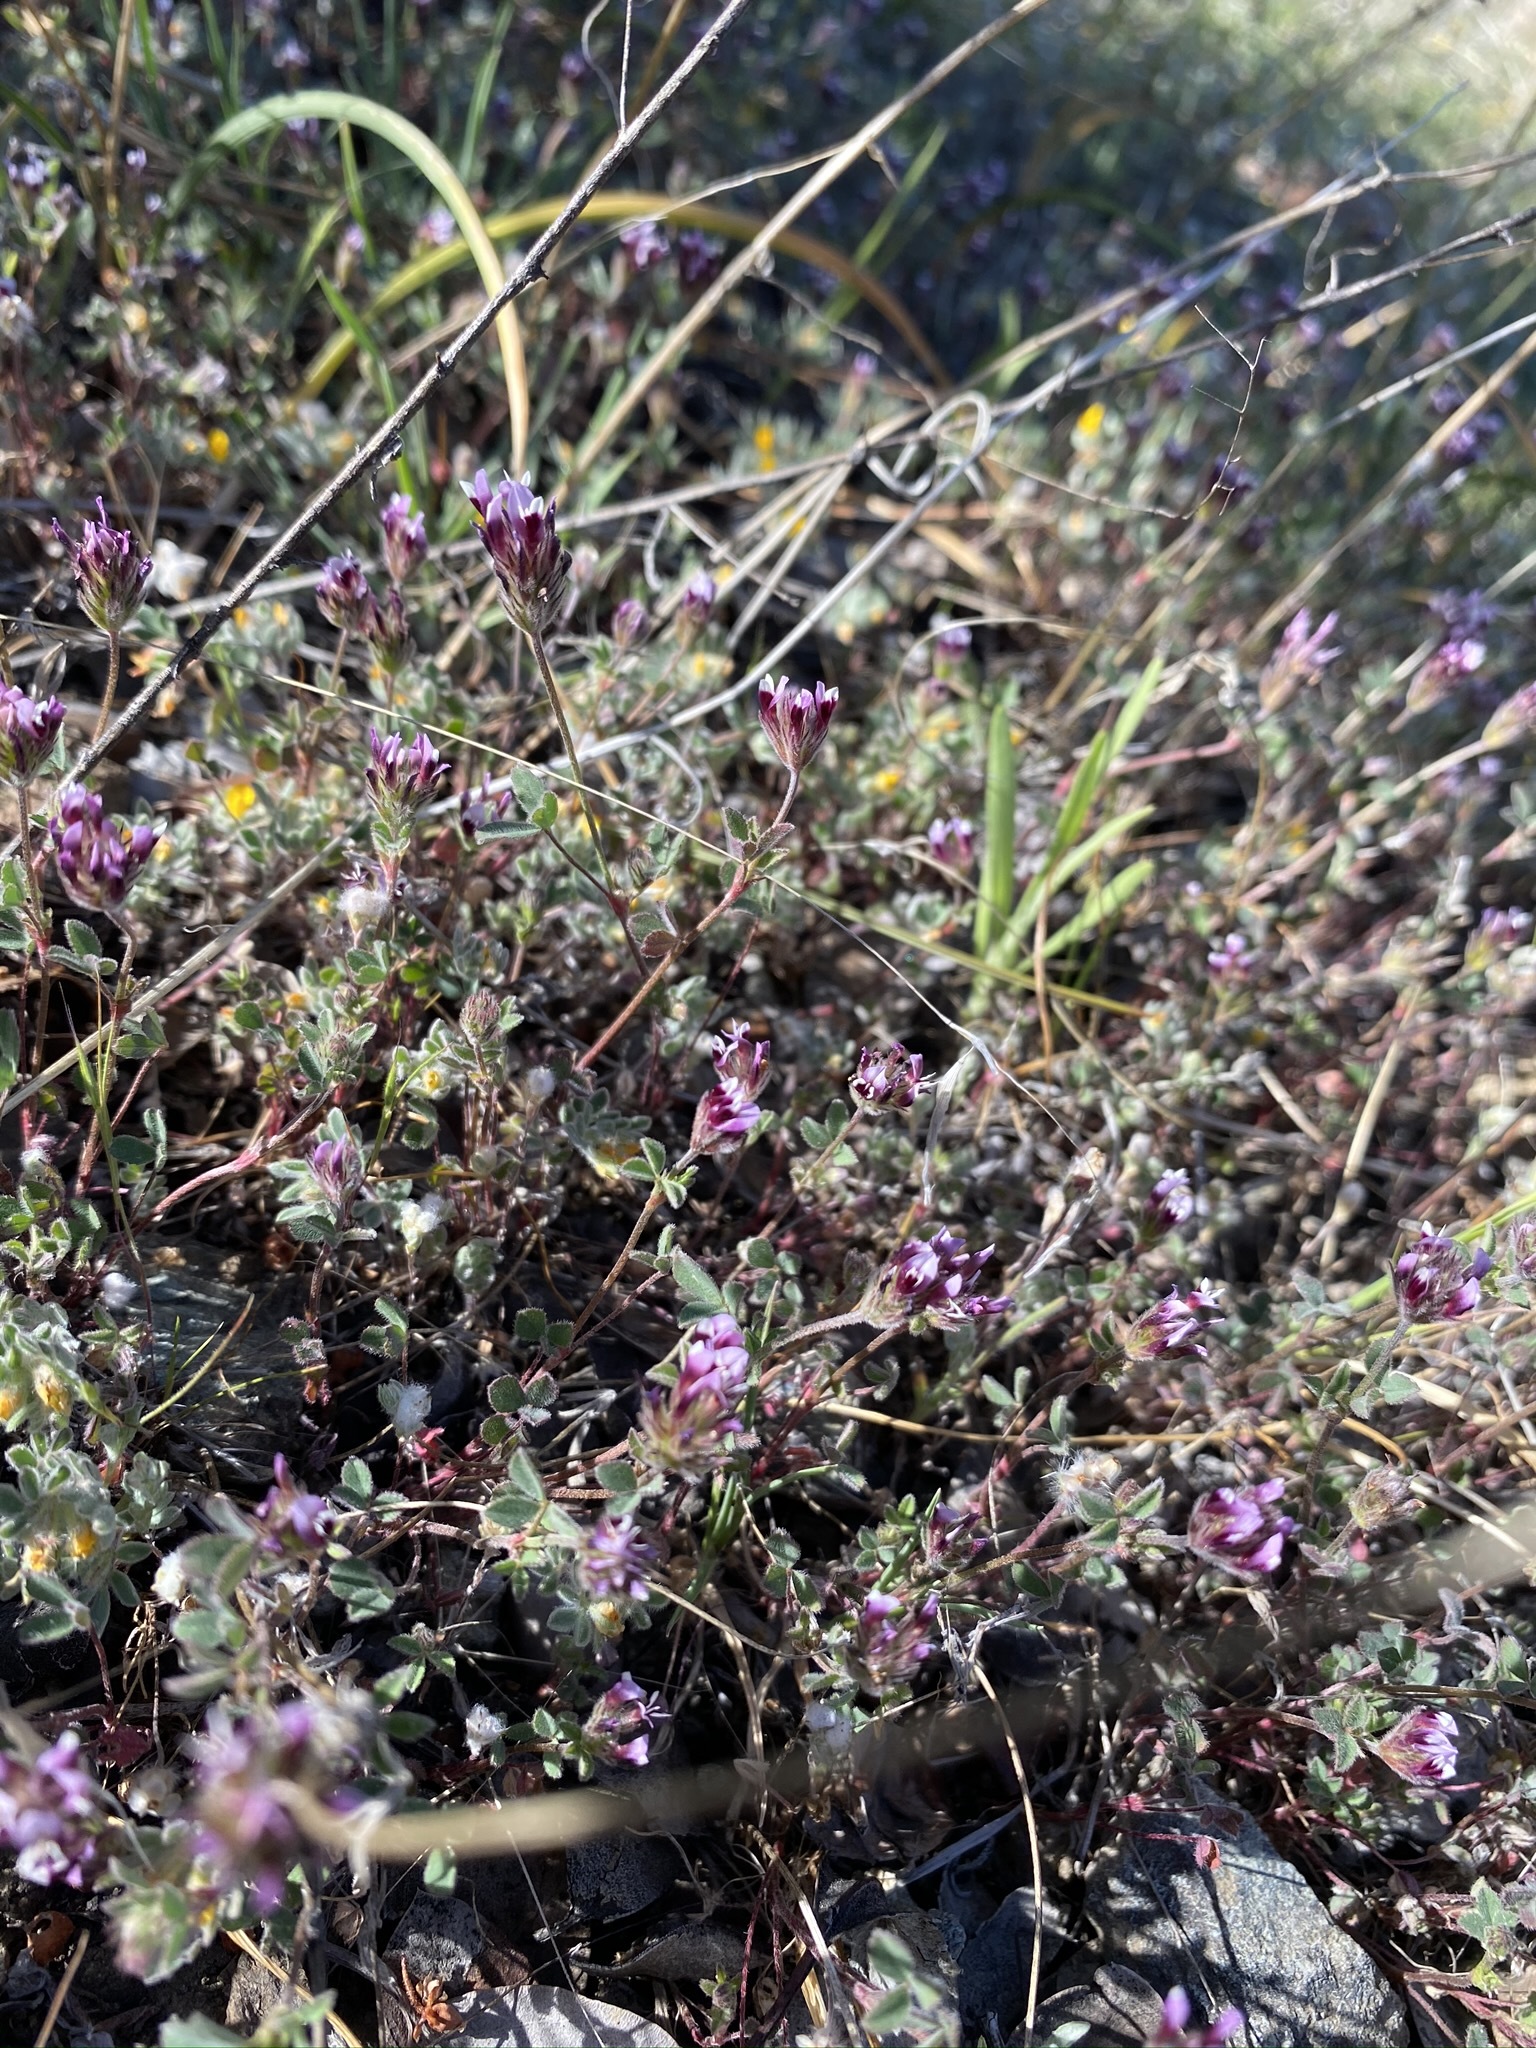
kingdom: Plantae
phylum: Tracheophyta
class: Magnoliopsida
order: Fabales
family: Fabaceae
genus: Trifolium
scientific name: Trifolium dichotomum
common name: Branched indian clover
